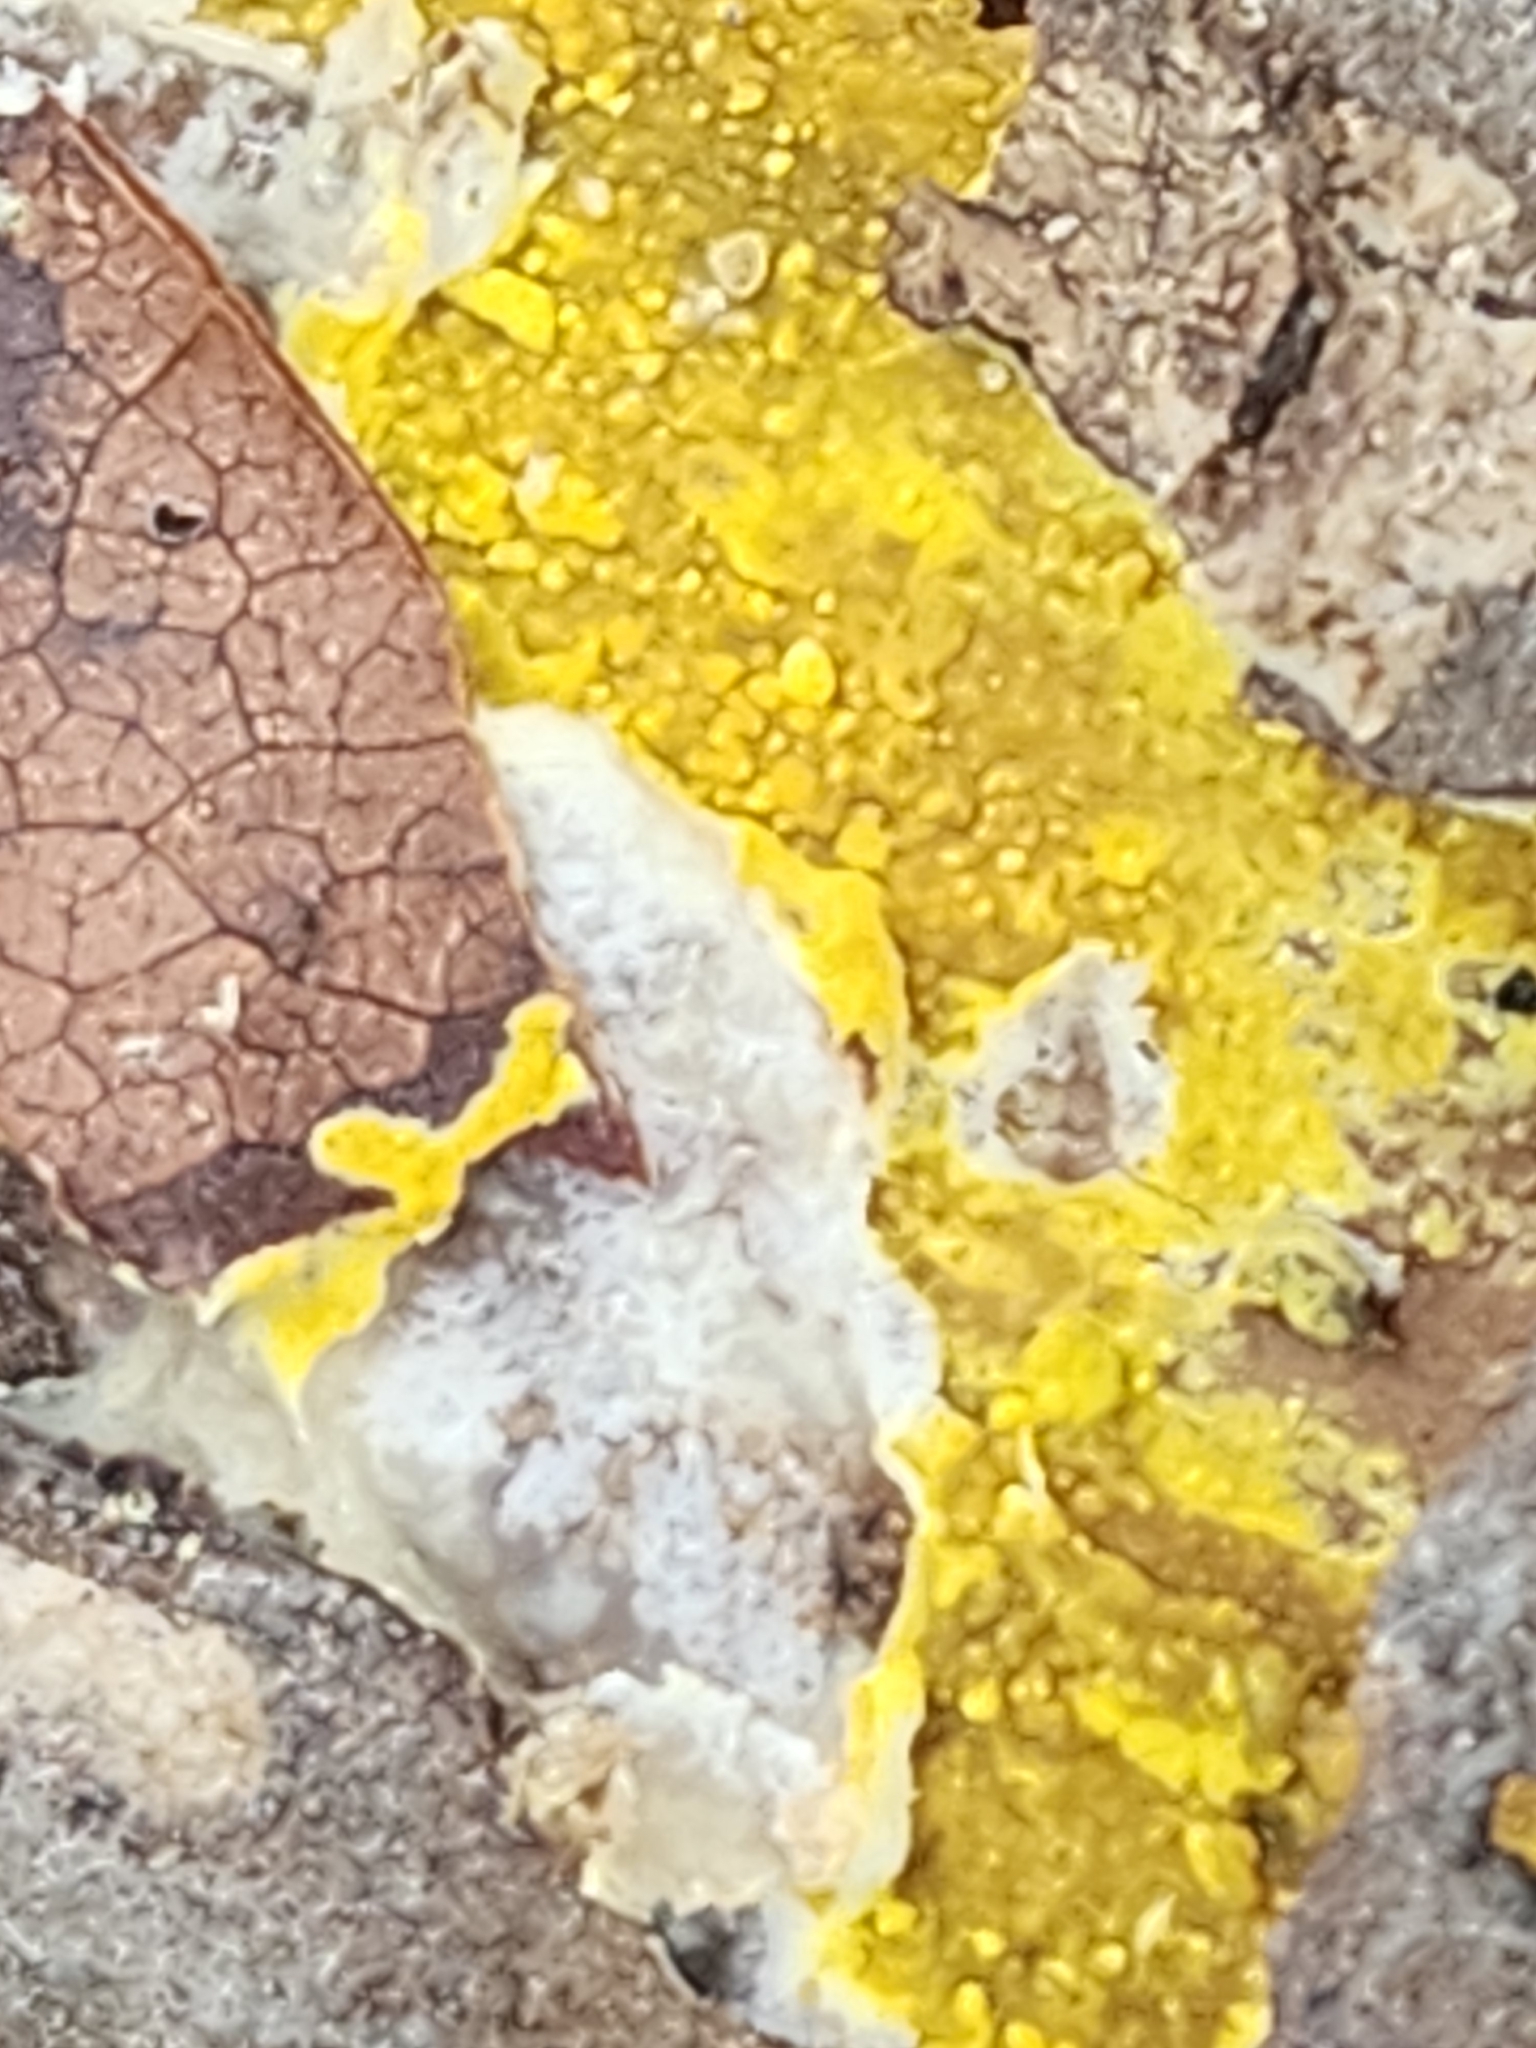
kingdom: Fungi
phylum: Basidiomycota
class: Agaricomycetes
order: Polyporales
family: Meruliaceae
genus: Phlebiodontia
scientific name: Phlebiodontia subochracea
